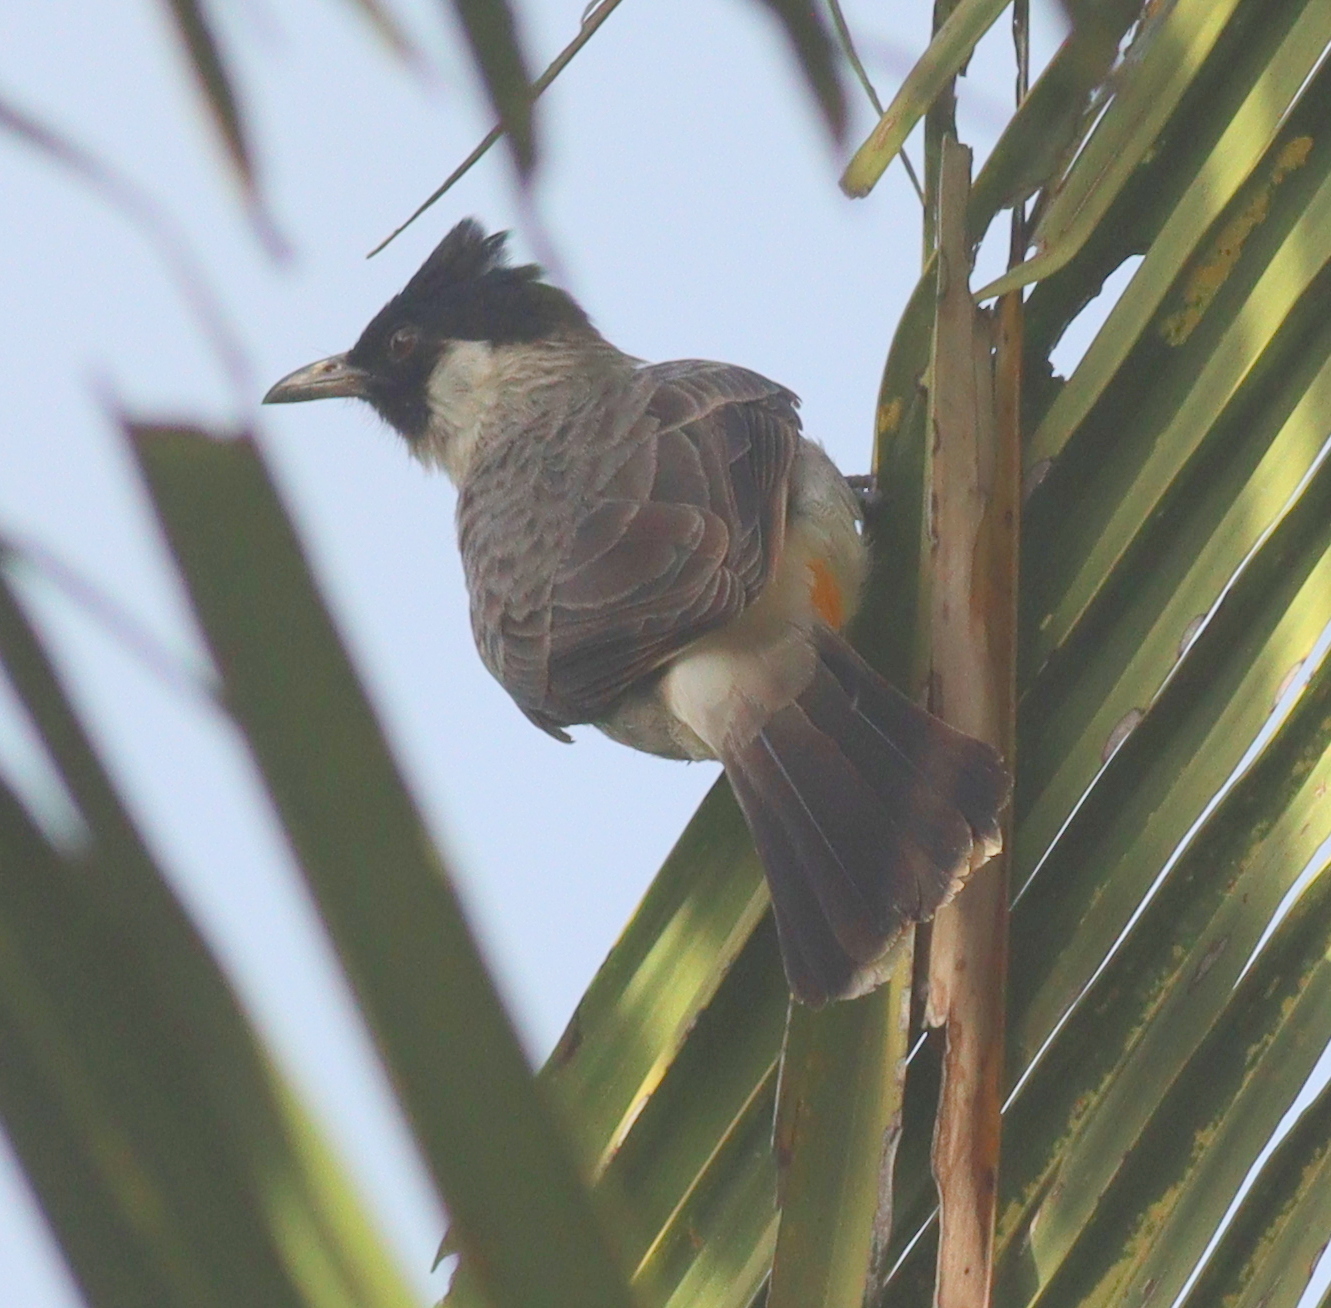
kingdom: Animalia
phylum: Chordata
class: Aves
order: Passeriformes
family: Pycnonotidae
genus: Pycnonotus
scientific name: Pycnonotus aurigaster
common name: Sooty-headed bulbul
